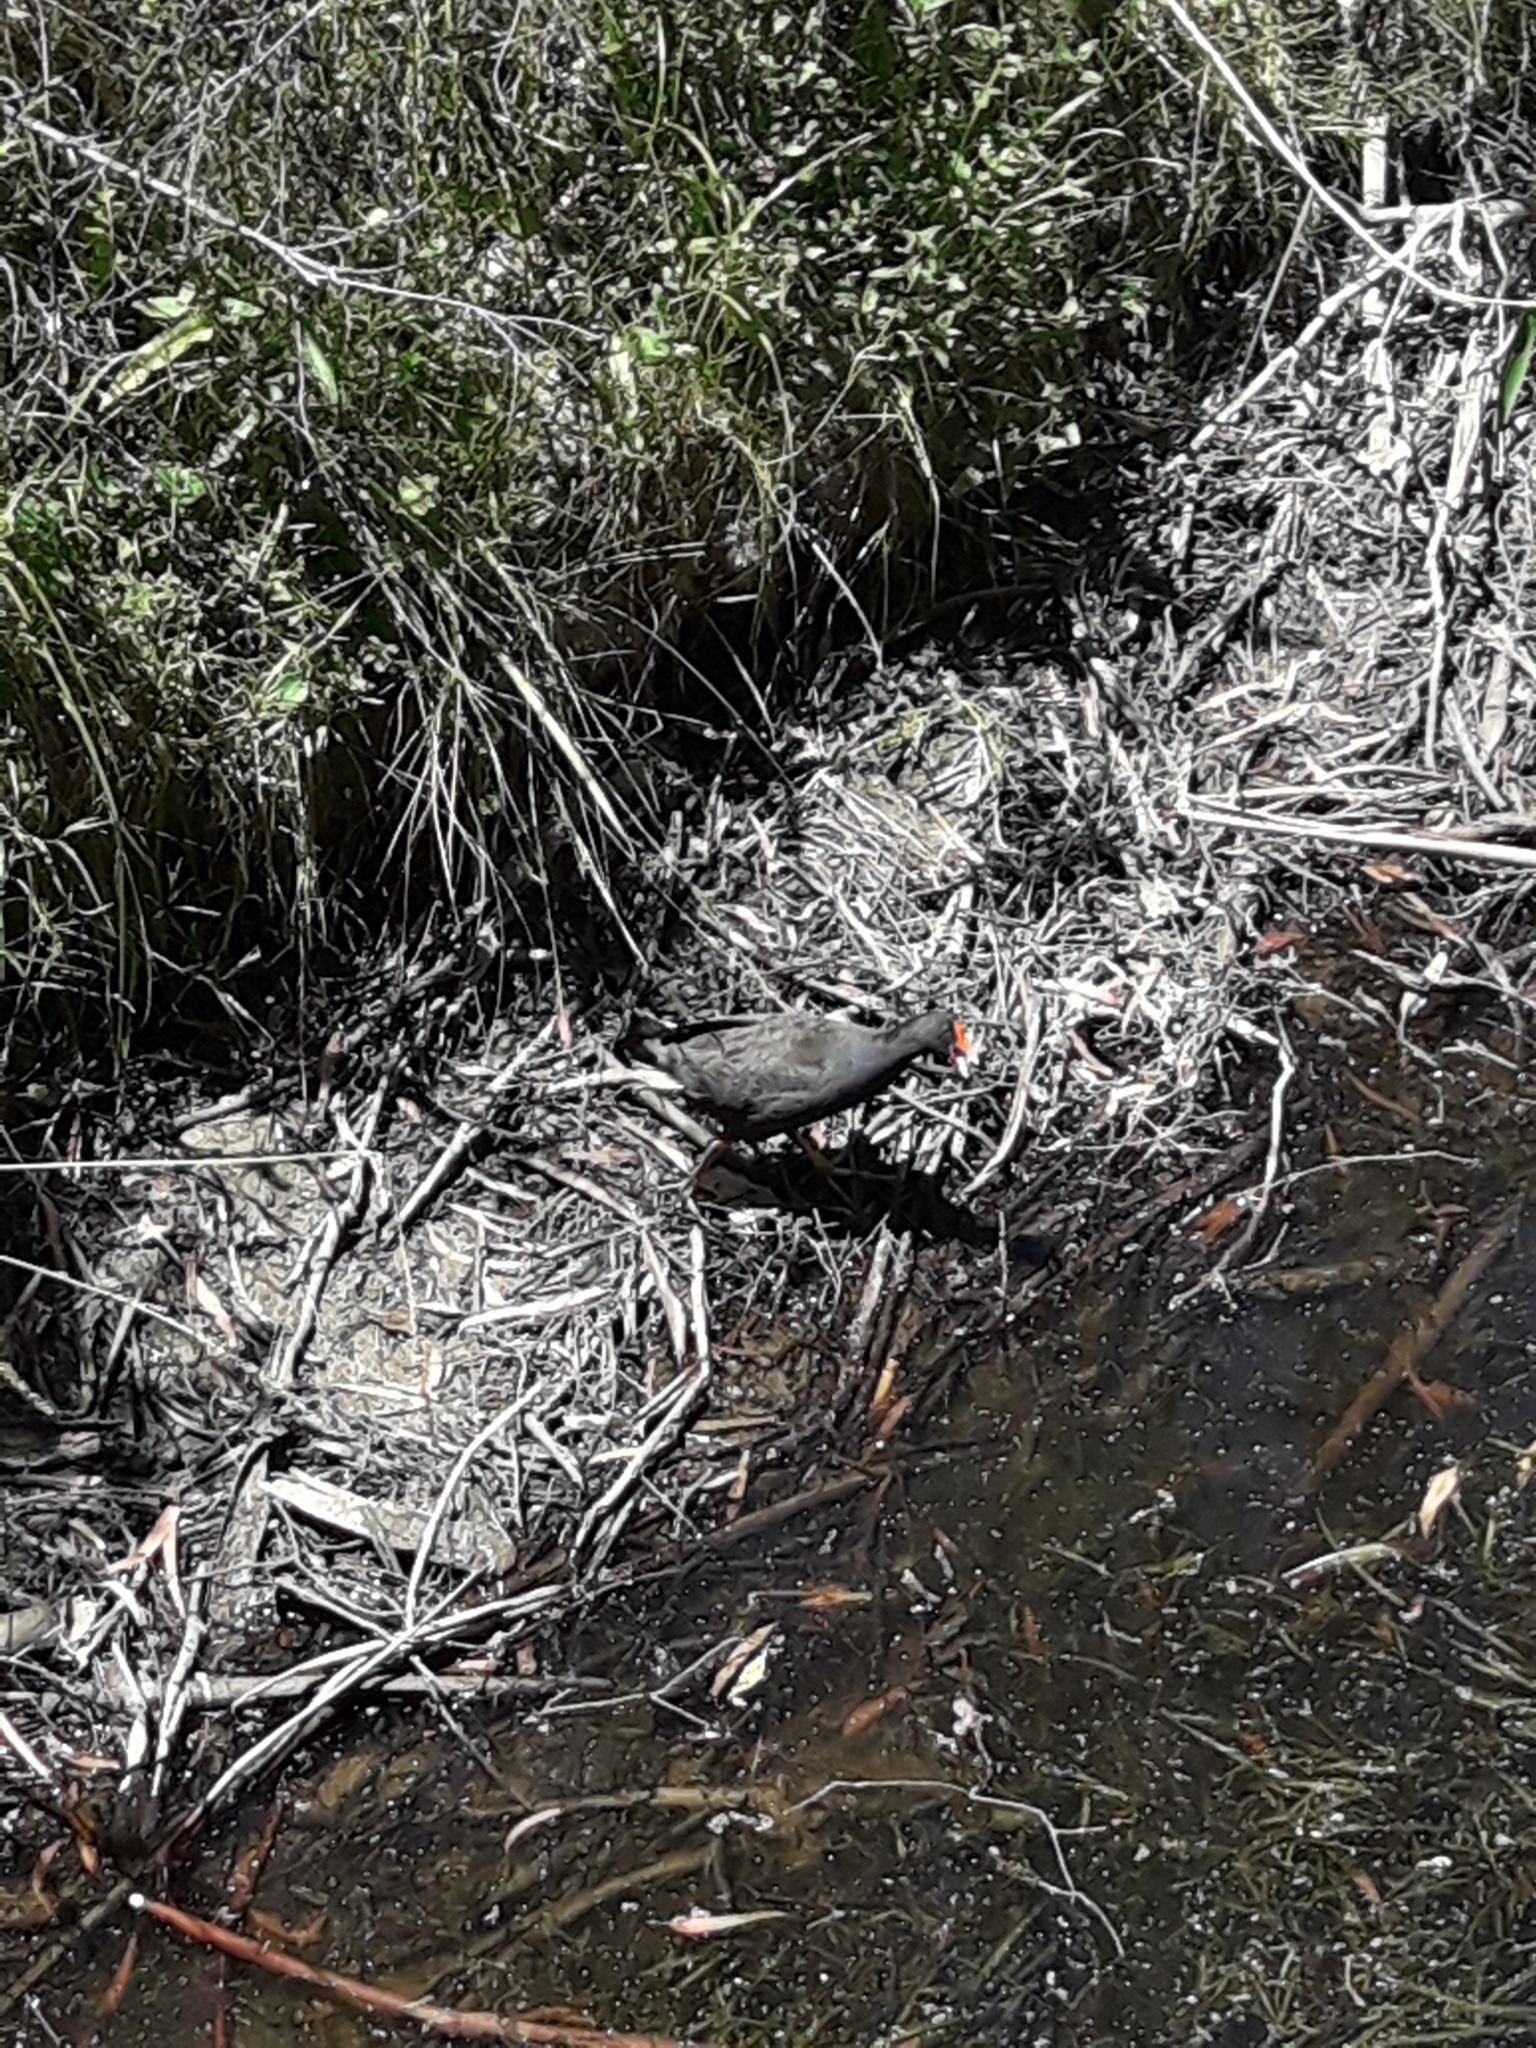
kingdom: Animalia
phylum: Chordata
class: Aves
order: Gruiformes
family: Rallidae
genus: Gallinula
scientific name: Gallinula tenebrosa
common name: Dusky moorhen
